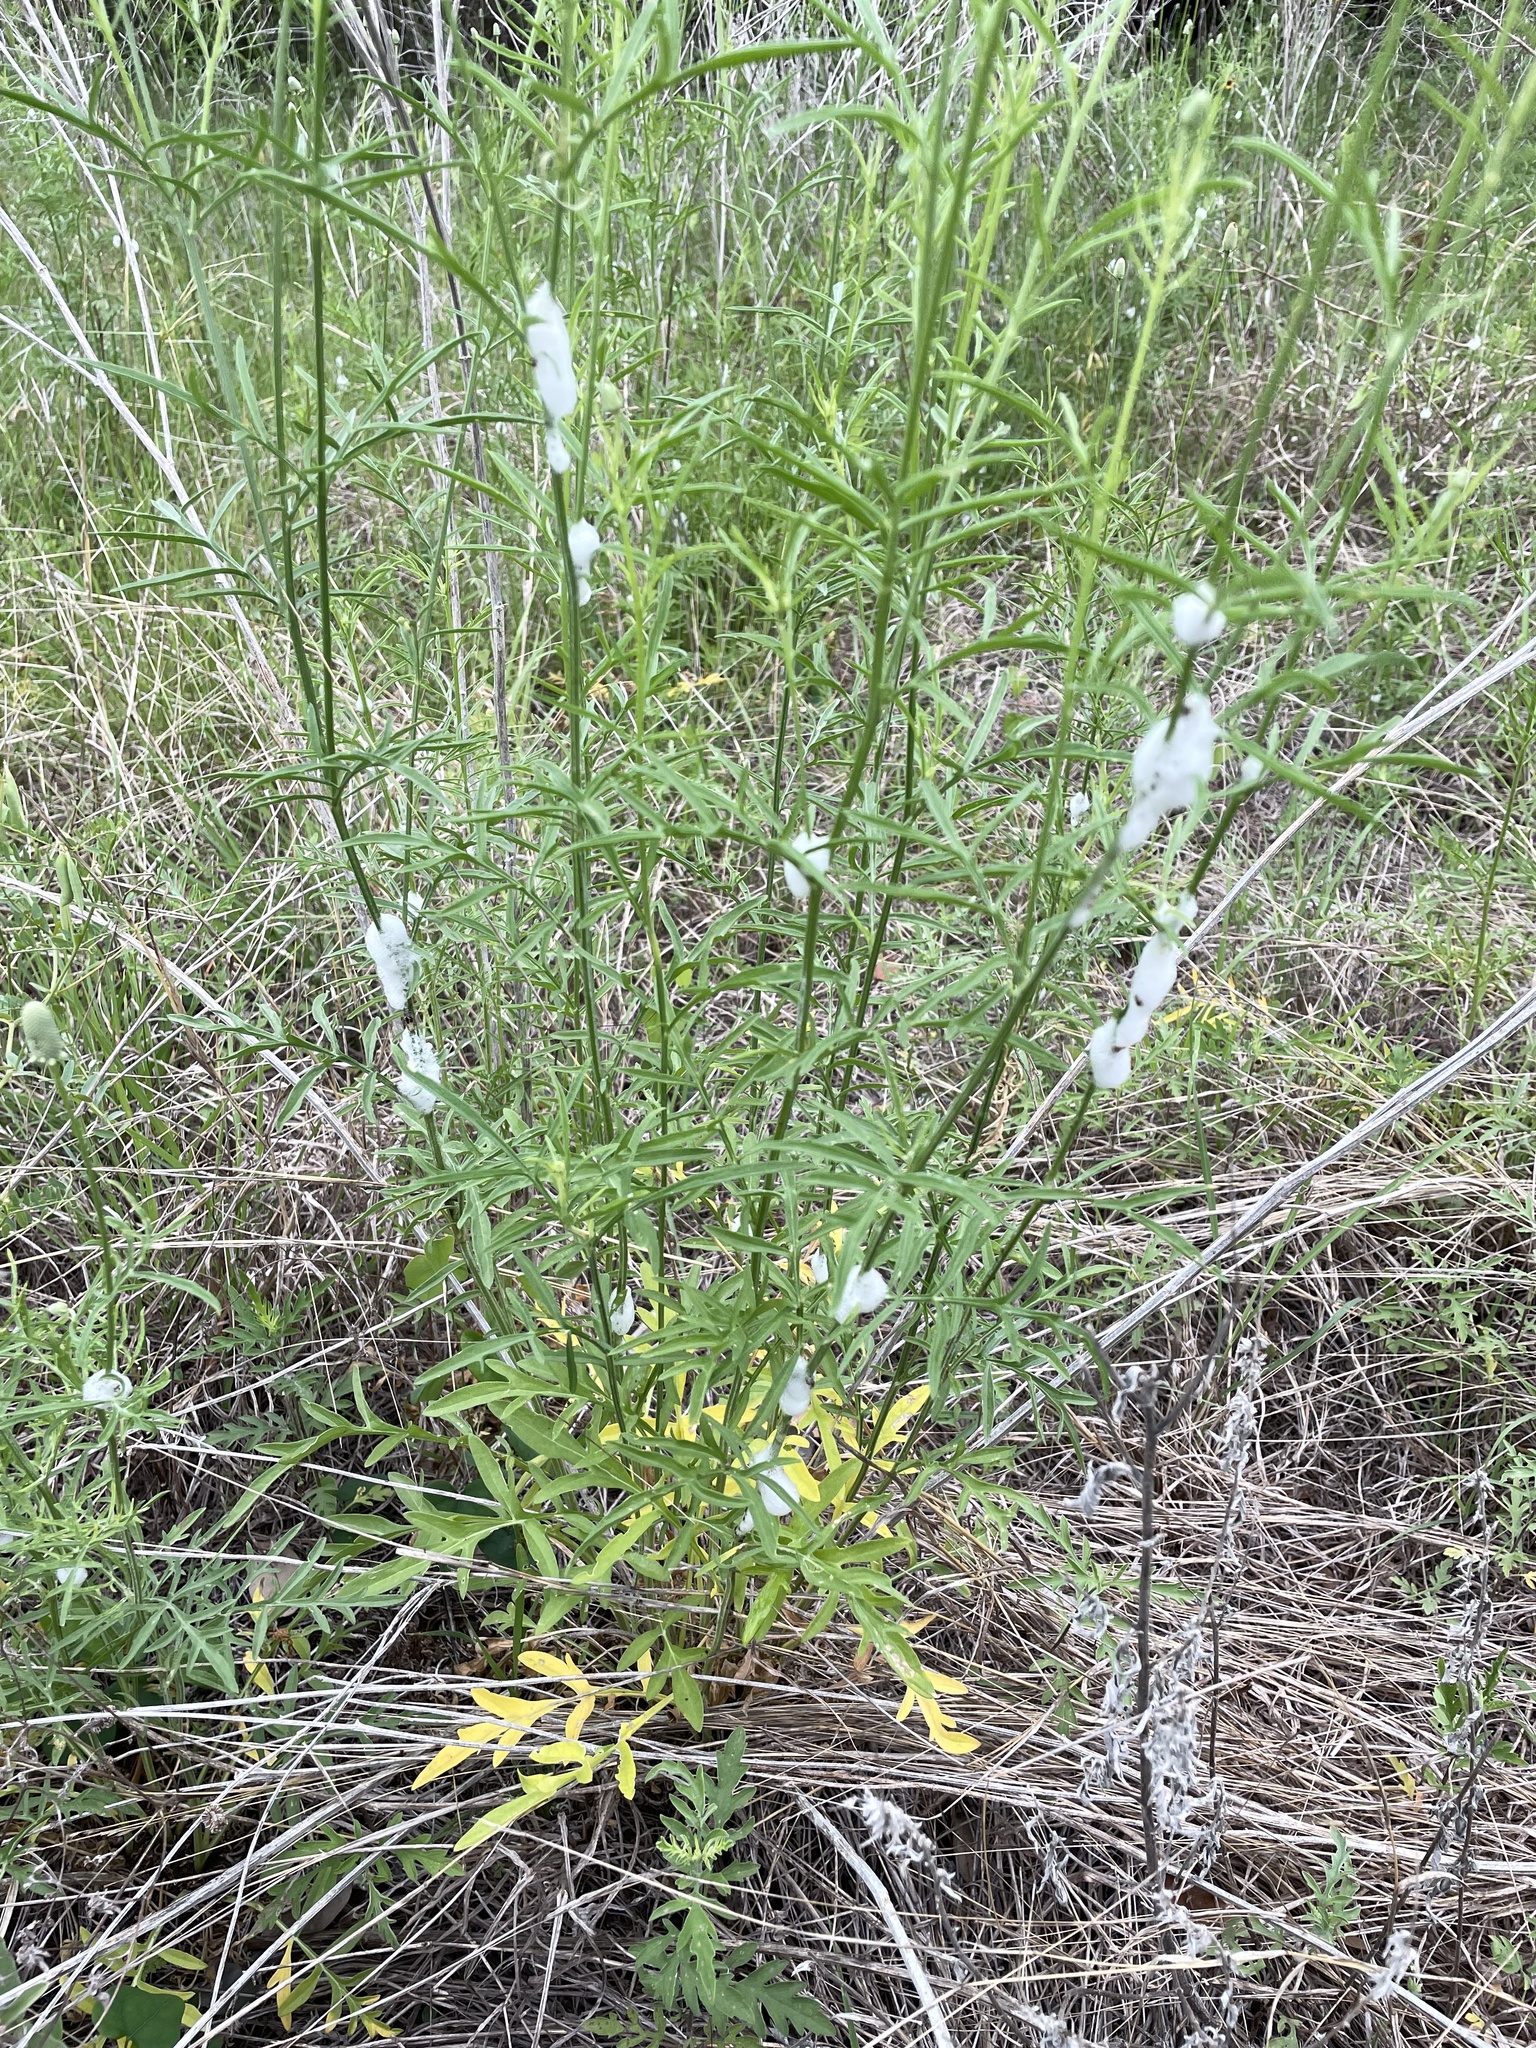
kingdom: Animalia
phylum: Arthropoda
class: Insecta
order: Hemiptera
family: Aphrophoridae
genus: Lepyronia
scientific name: Lepyronia gibbosa
